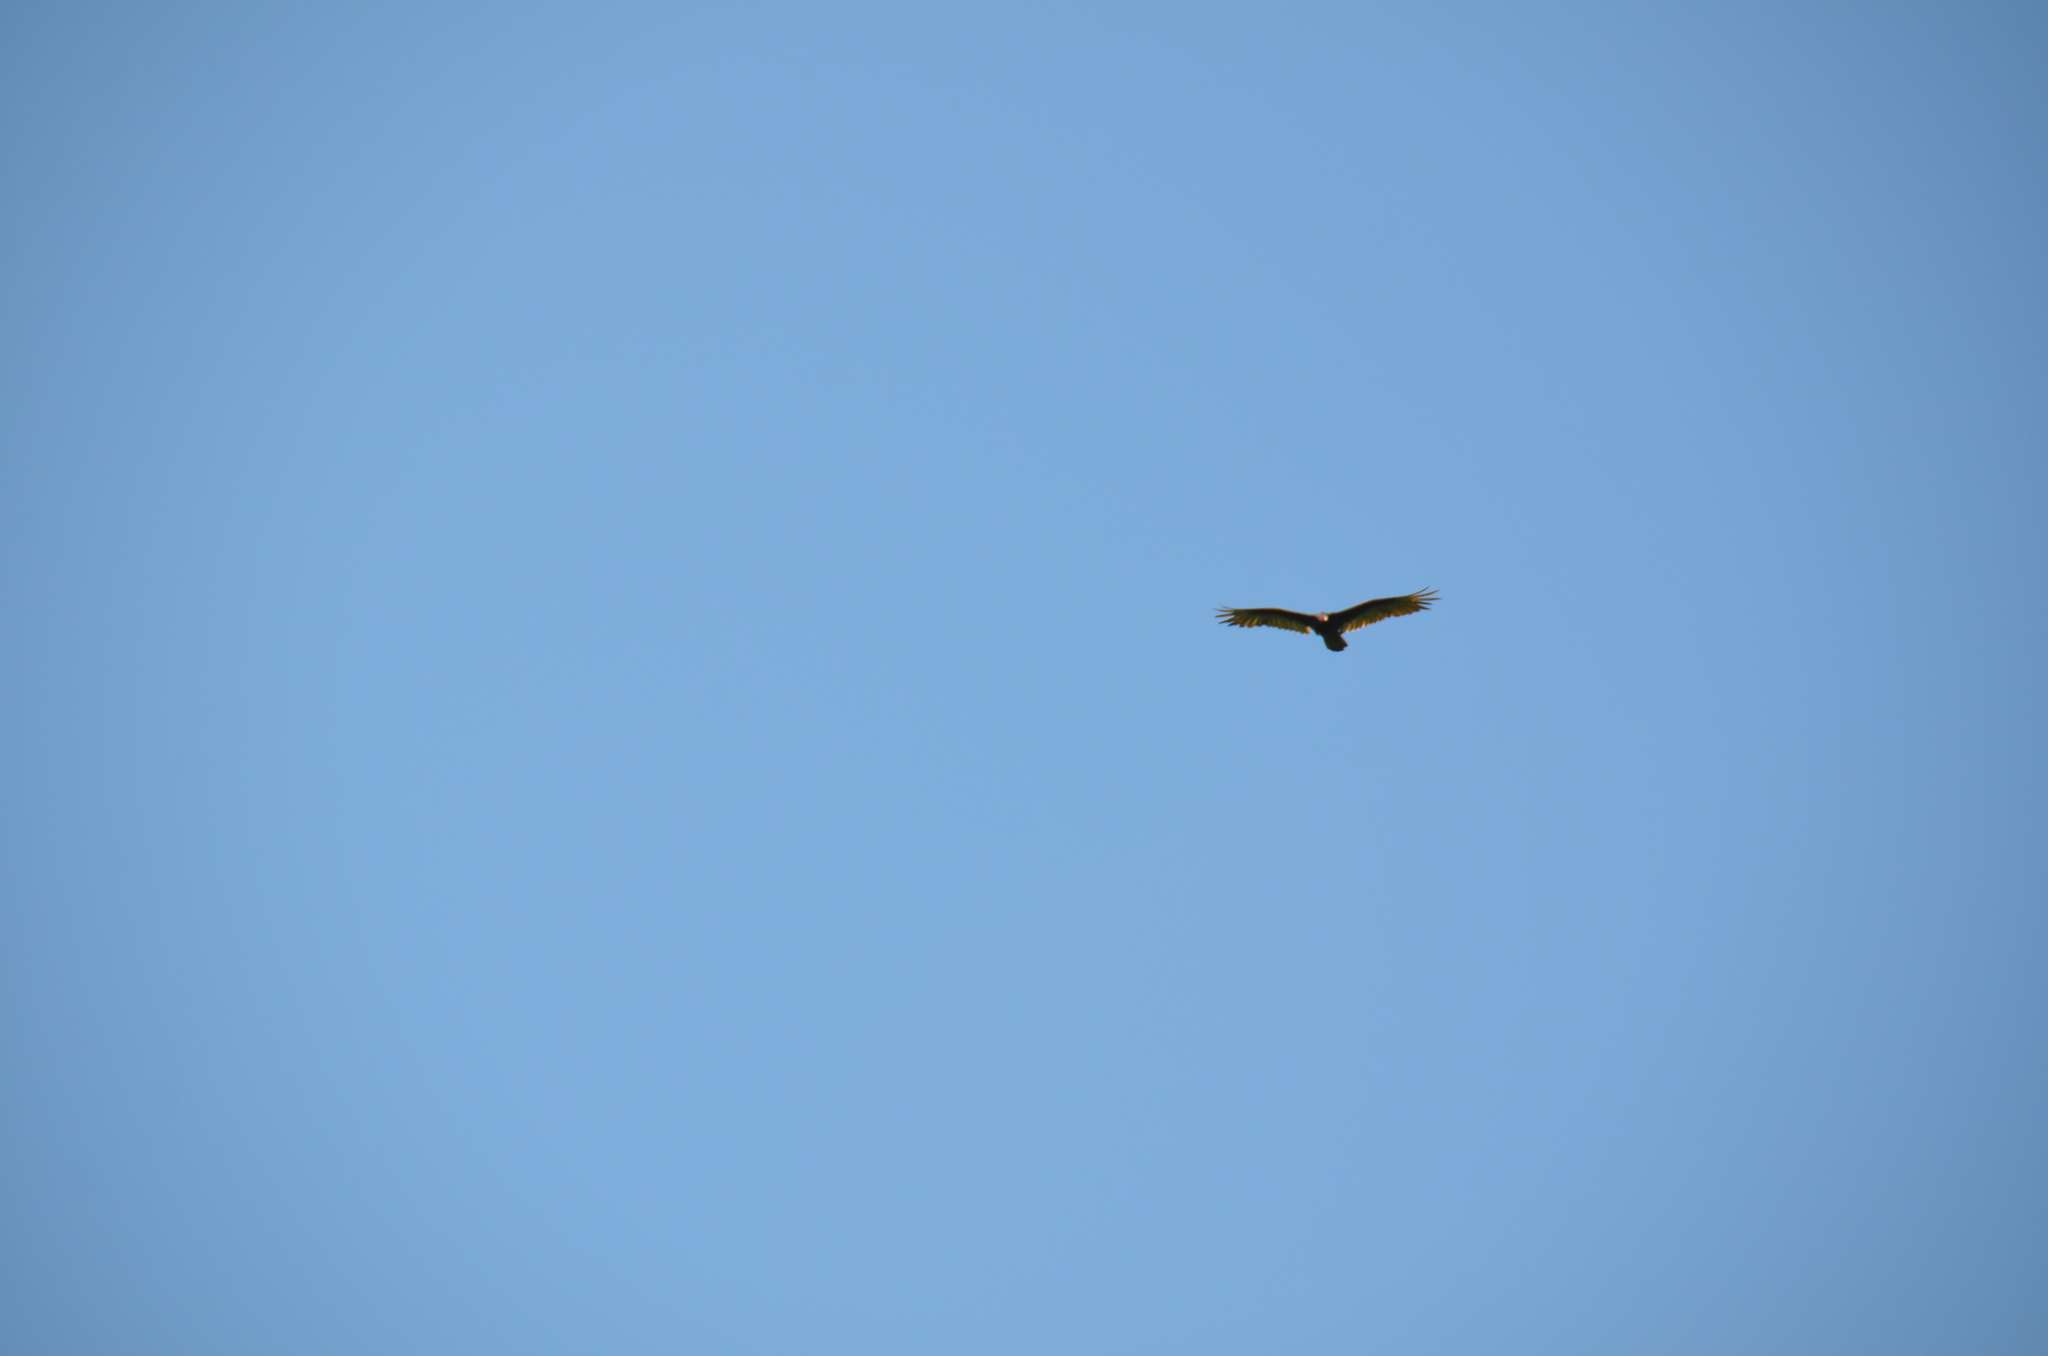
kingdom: Animalia
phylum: Chordata
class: Aves
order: Accipitriformes
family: Cathartidae
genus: Cathartes
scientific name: Cathartes aura
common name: Turkey vulture
